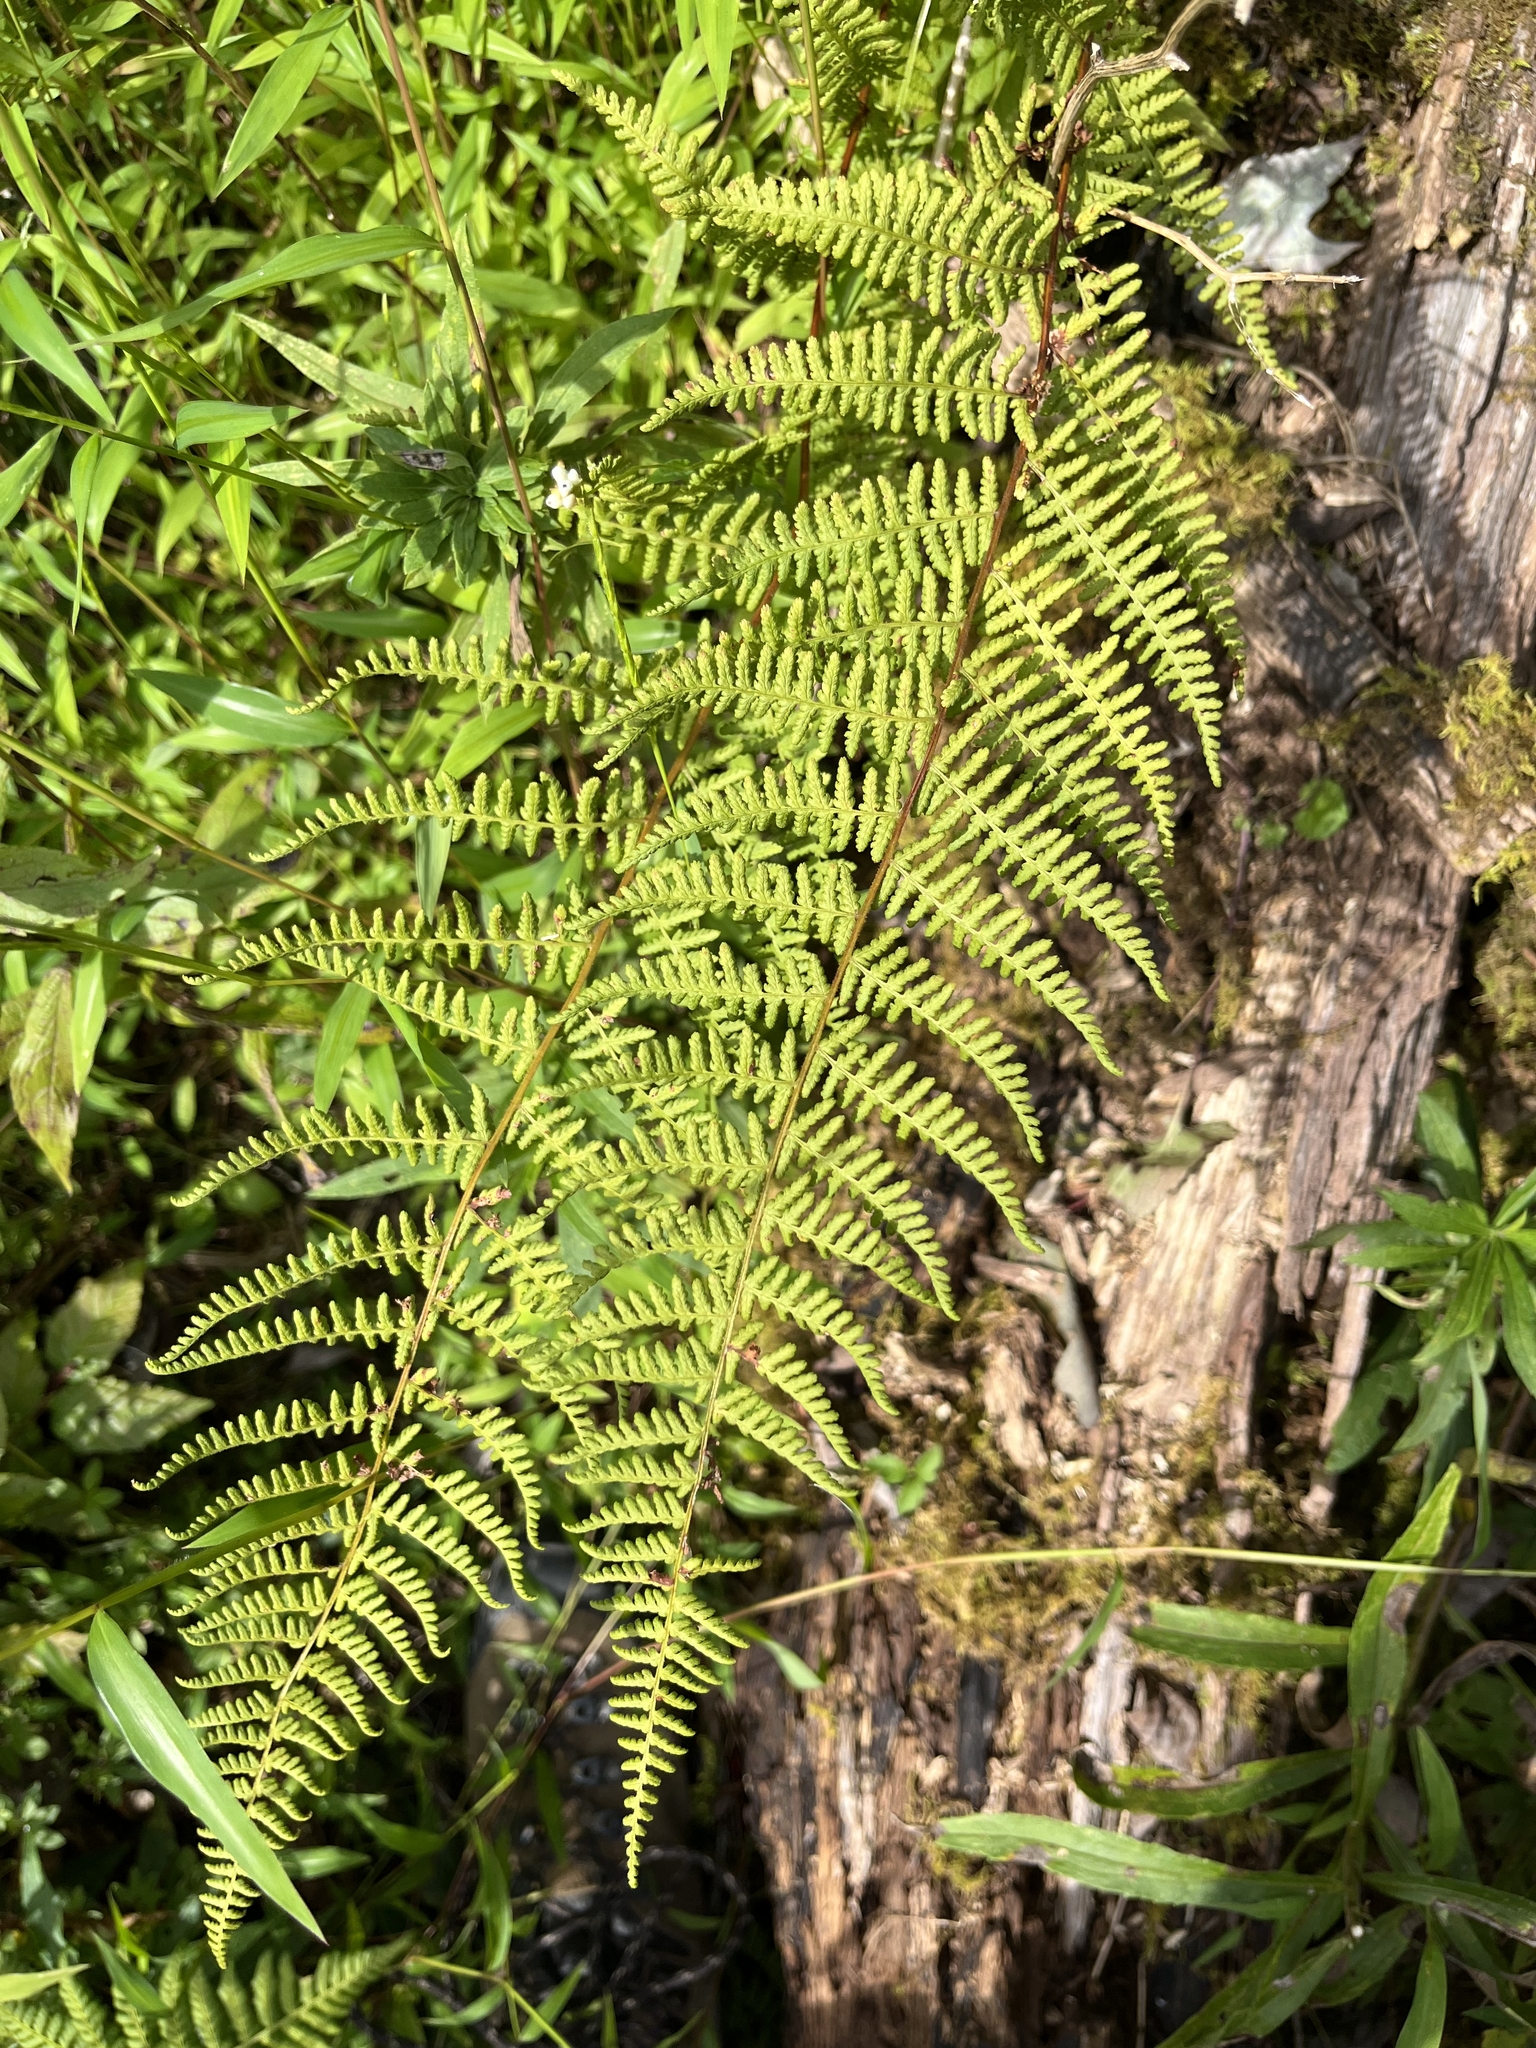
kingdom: Plantae
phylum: Tracheophyta
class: Polypodiopsida
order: Polypodiales
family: Dennstaedtiaceae
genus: Sitobolium
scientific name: Sitobolium punctilobum
